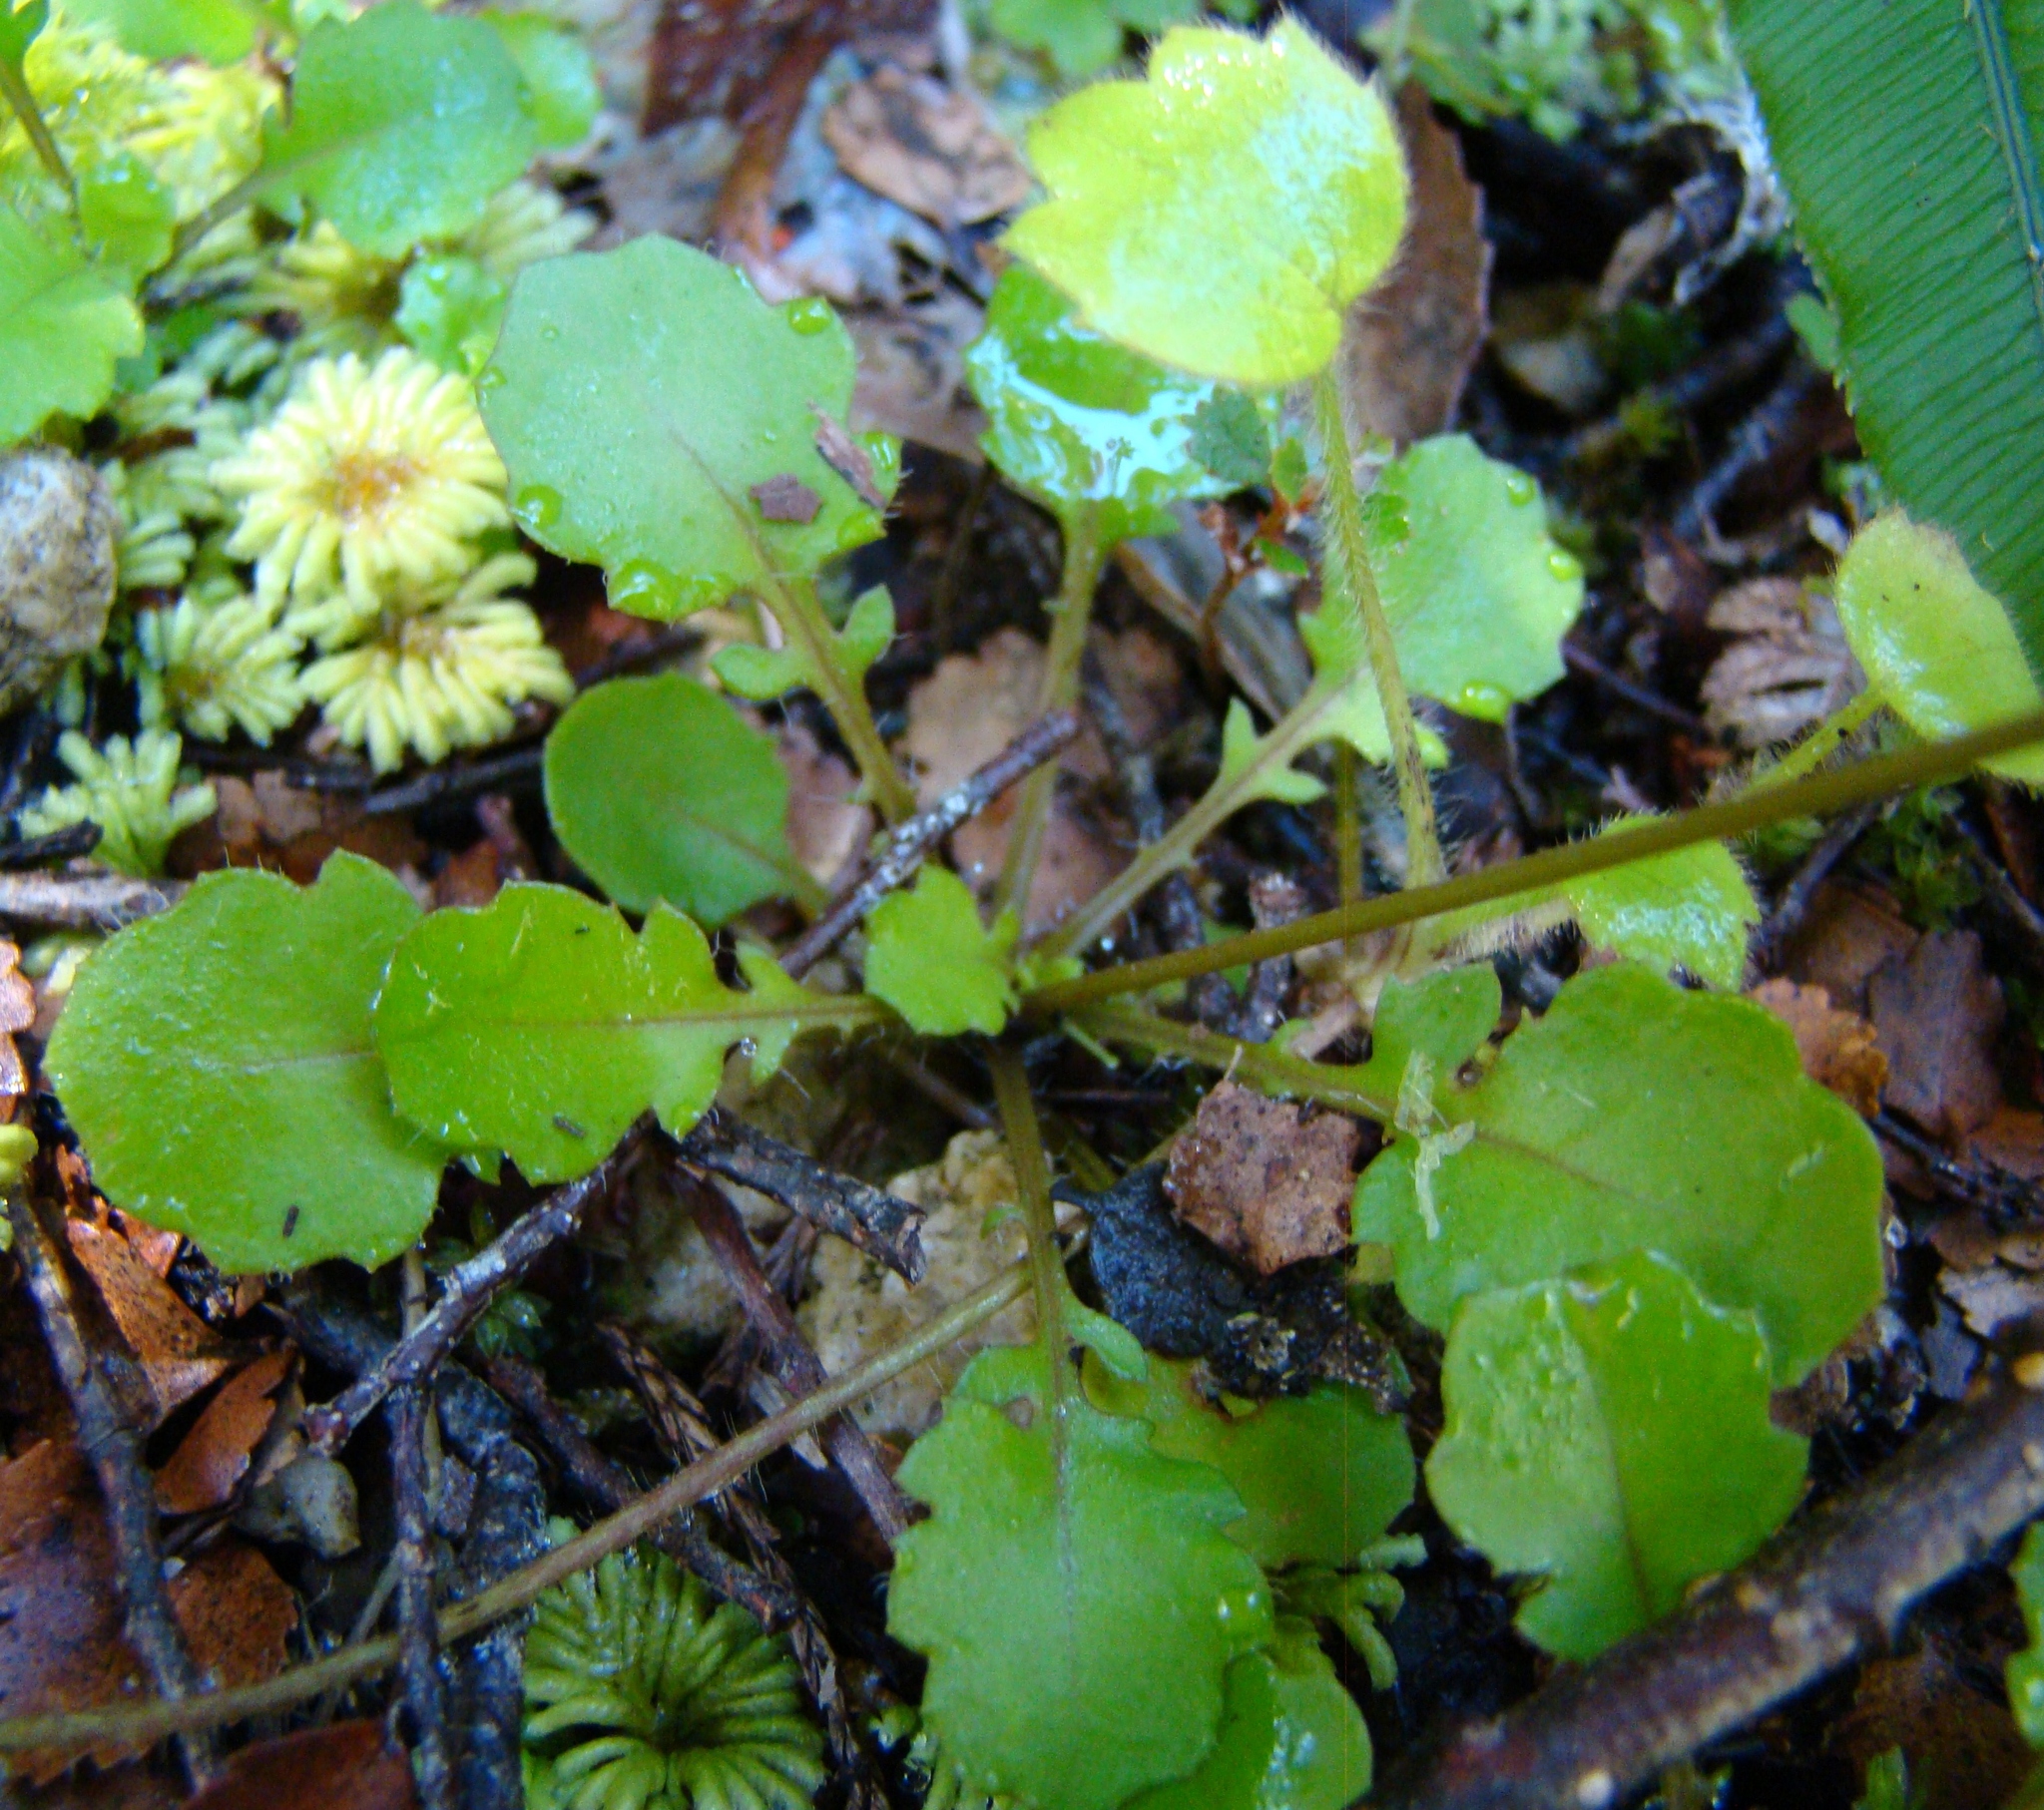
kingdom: Plantae
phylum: Tracheophyta
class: Magnoliopsida
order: Asterales
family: Asteraceae
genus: Lagenophora
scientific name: Lagenophora pumila
